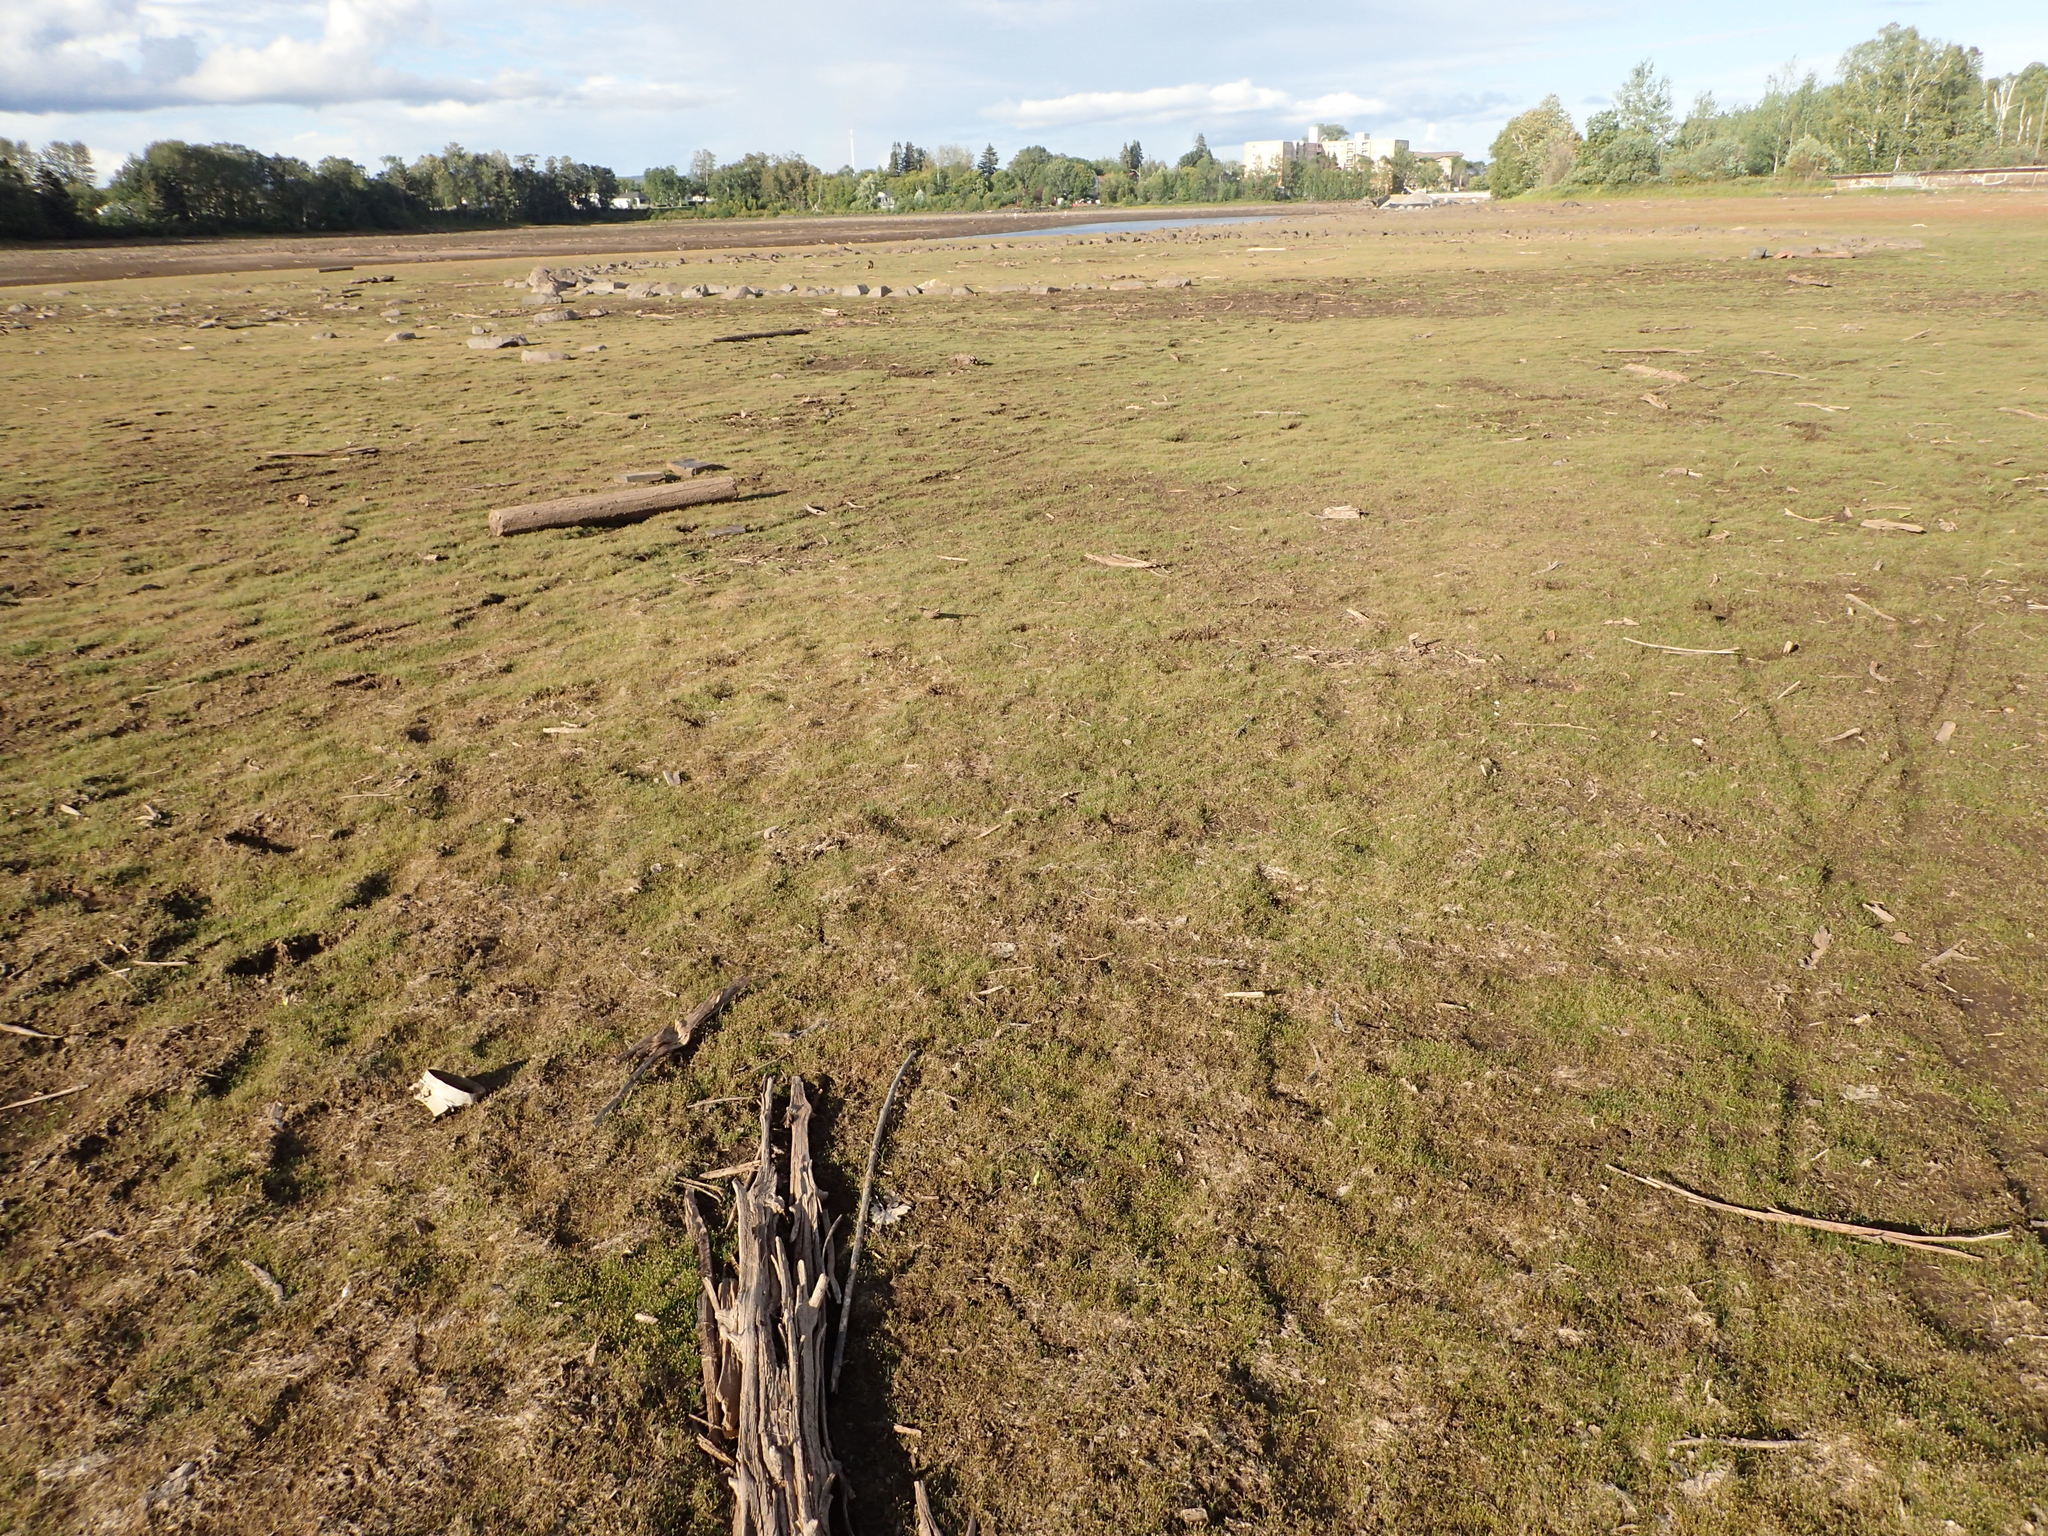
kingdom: Plantae
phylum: Tracheophyta
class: Liliopsida
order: Poales
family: Cyperaceae
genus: Eleocharis
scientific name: Eleocharis acicularis
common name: Needle spike-rush
